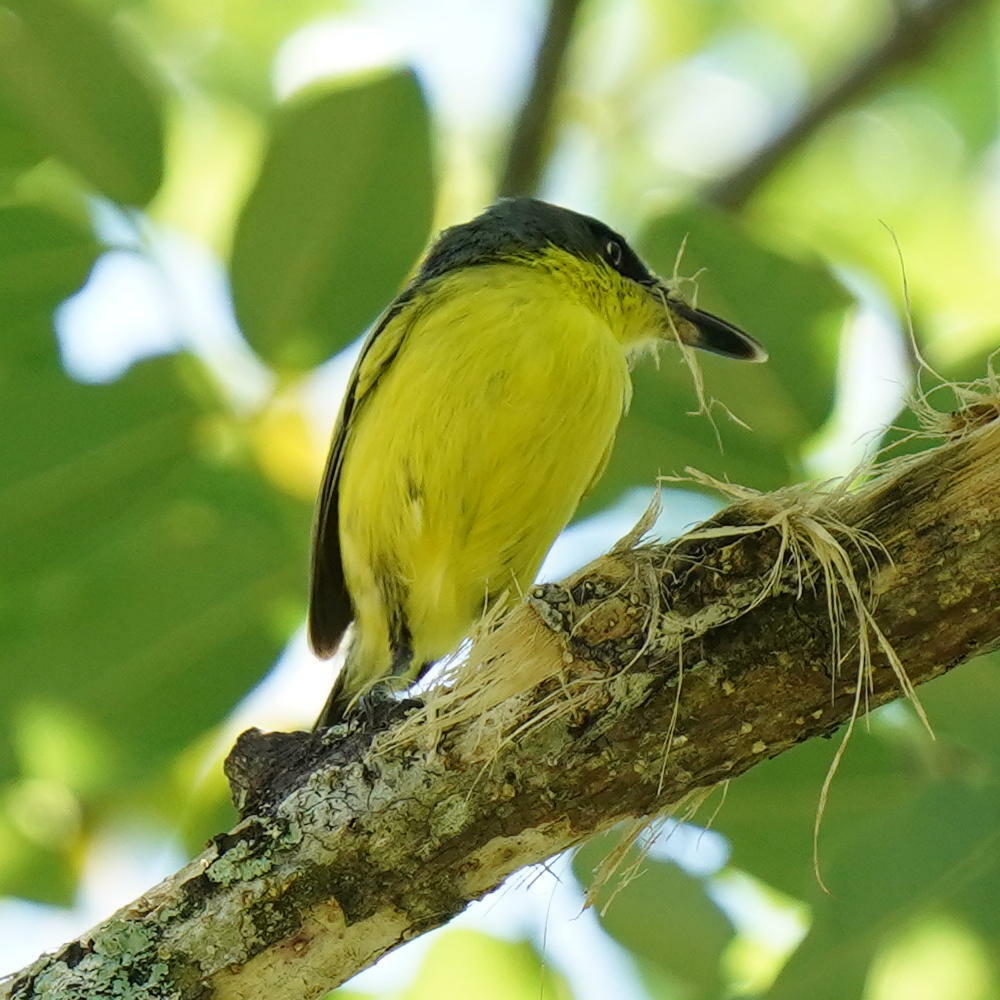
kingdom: Animalia
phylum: Chordata
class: Aves
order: Passeriformes
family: Tyrannidae
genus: Todirostrum
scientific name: Todirostrum cinereum
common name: Common tody-flycatcher
